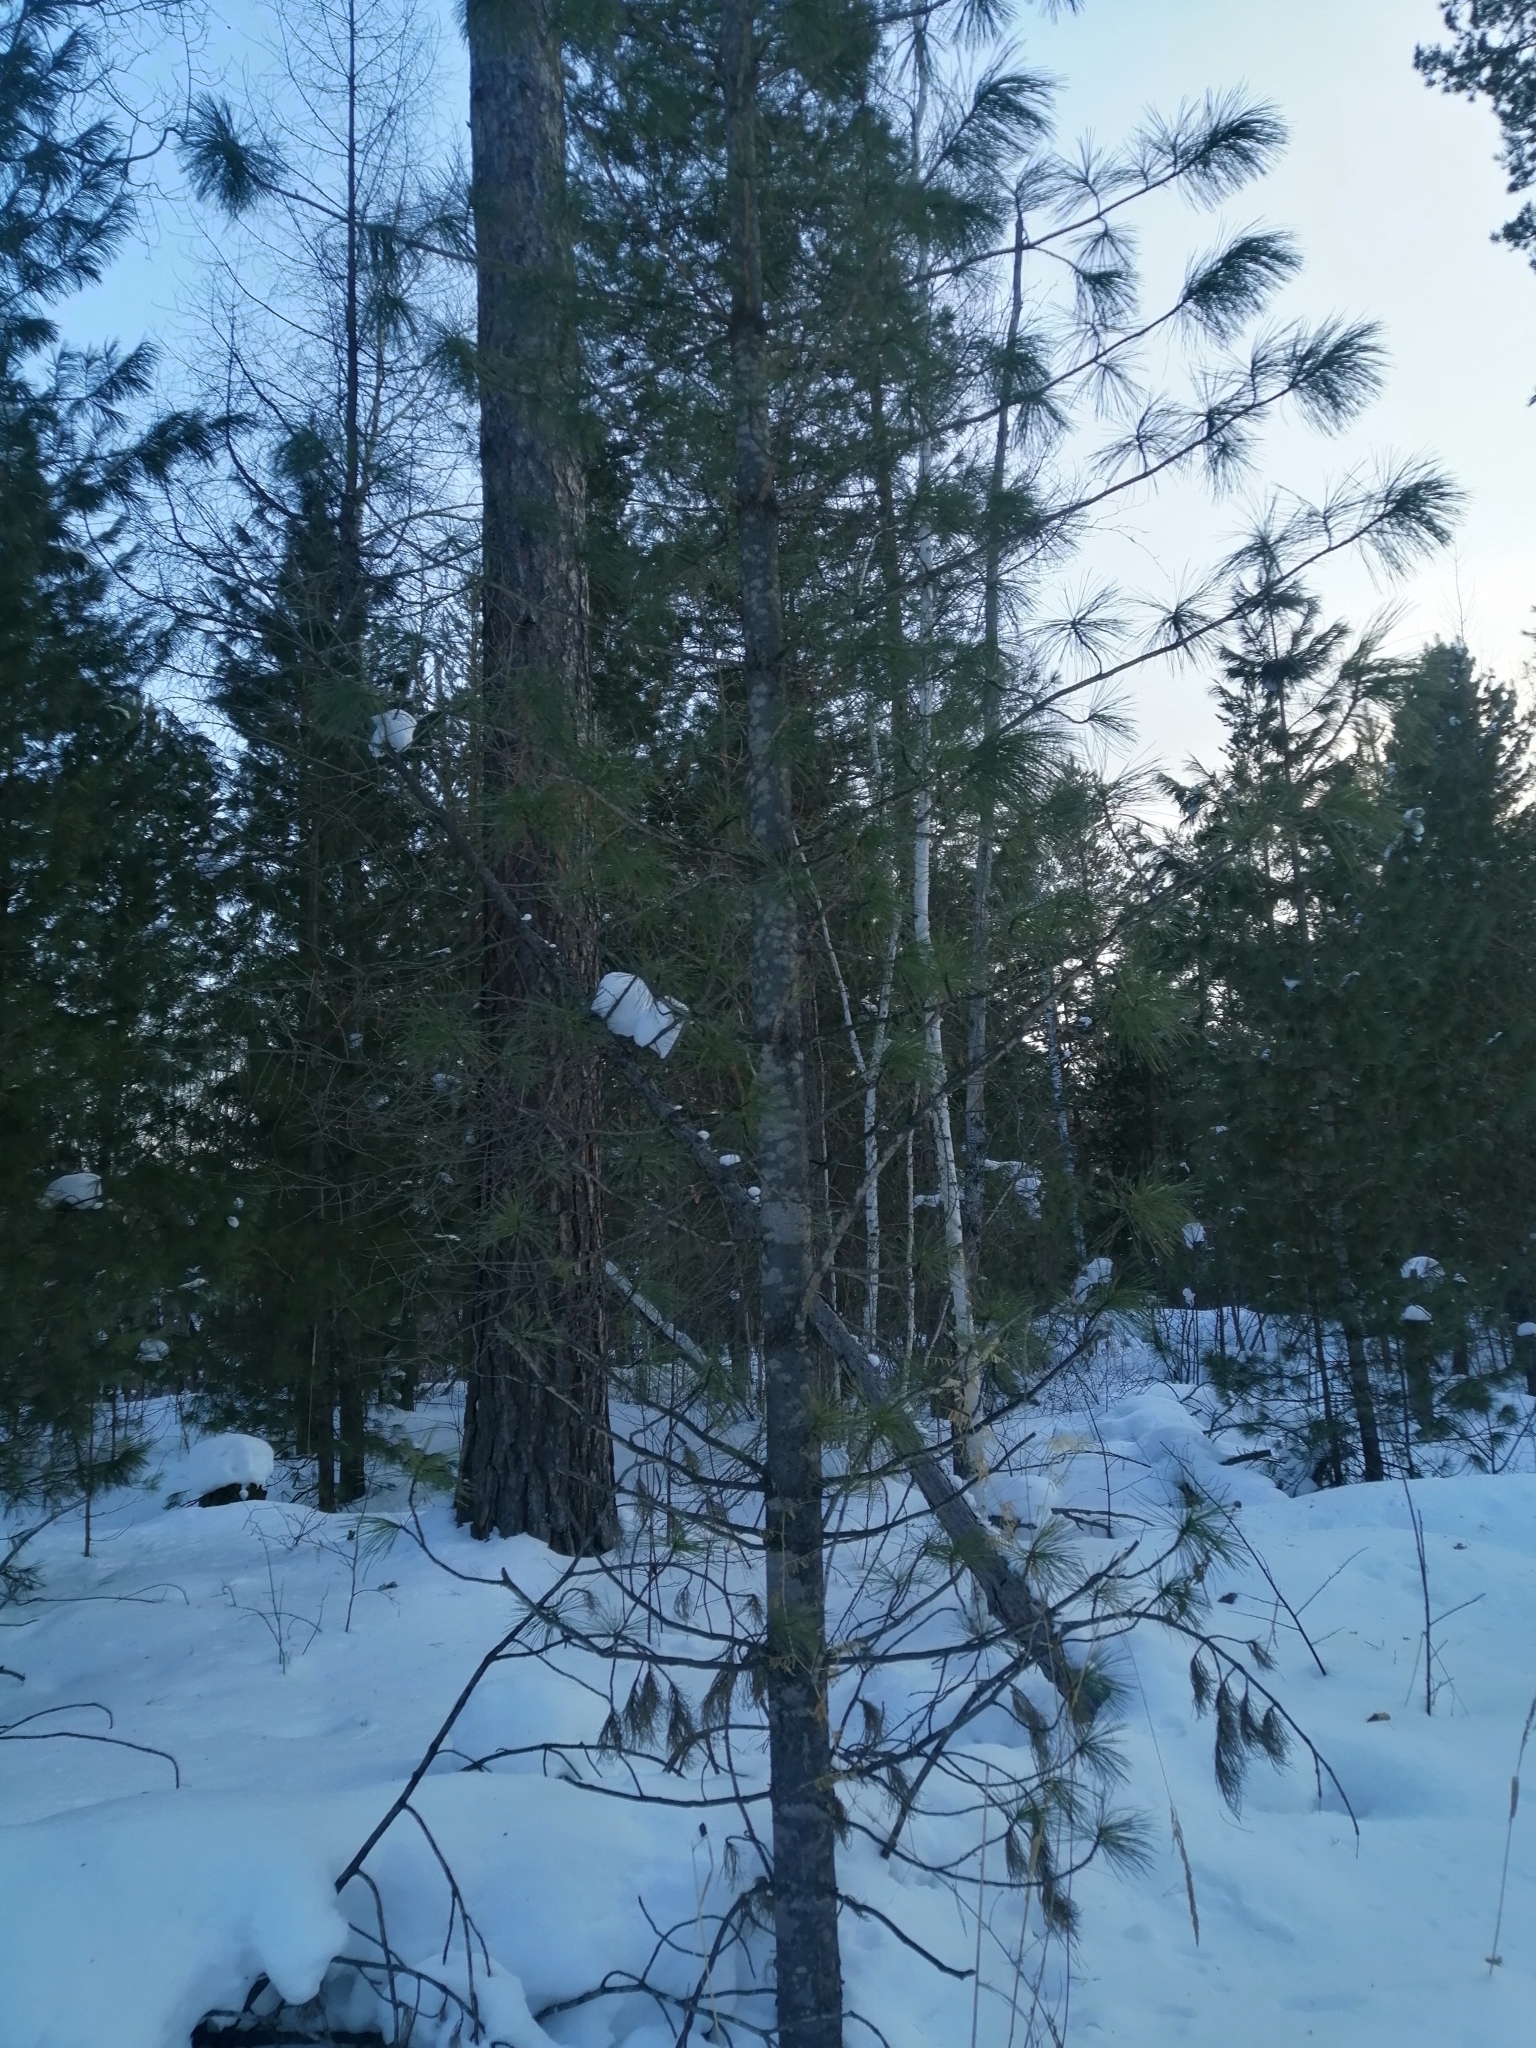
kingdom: Plantae
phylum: Tracheophyta
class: Pinopsida
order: Pinales
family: Pinaceae
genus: Pinus
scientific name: Pinus sibirica
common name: Siberian pine
